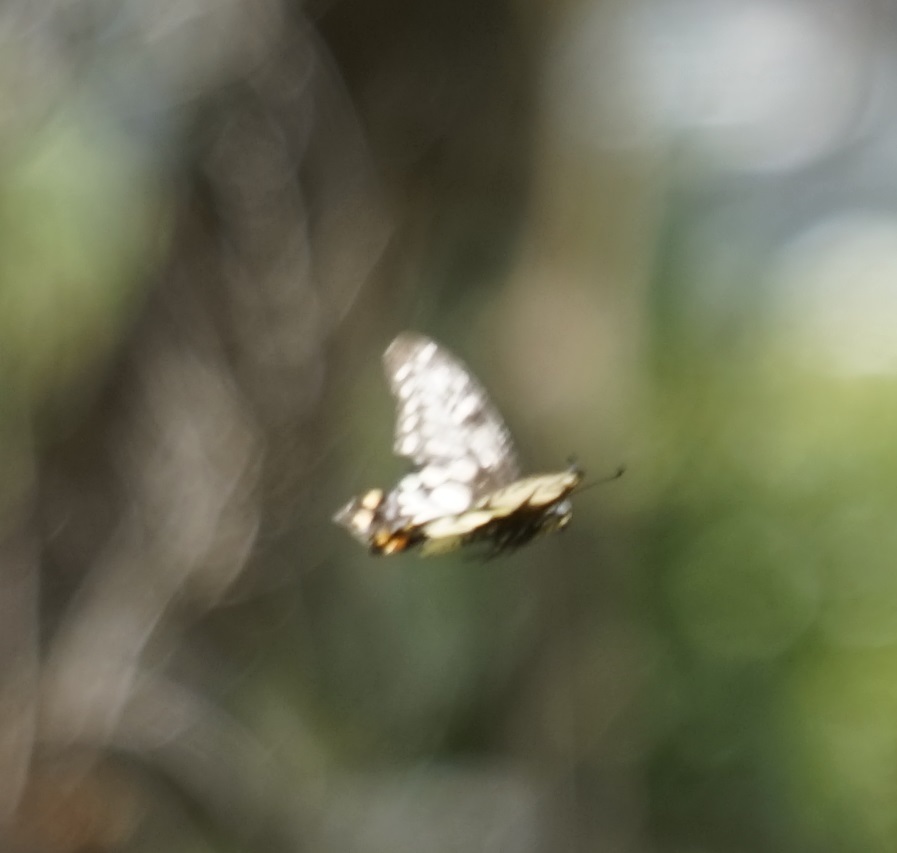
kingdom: Animalia
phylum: Arthropoda
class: Insecta
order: Lepidoptera
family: Papilionidae
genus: Papilio
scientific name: Papilio anactus
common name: Dingy swallowtail
